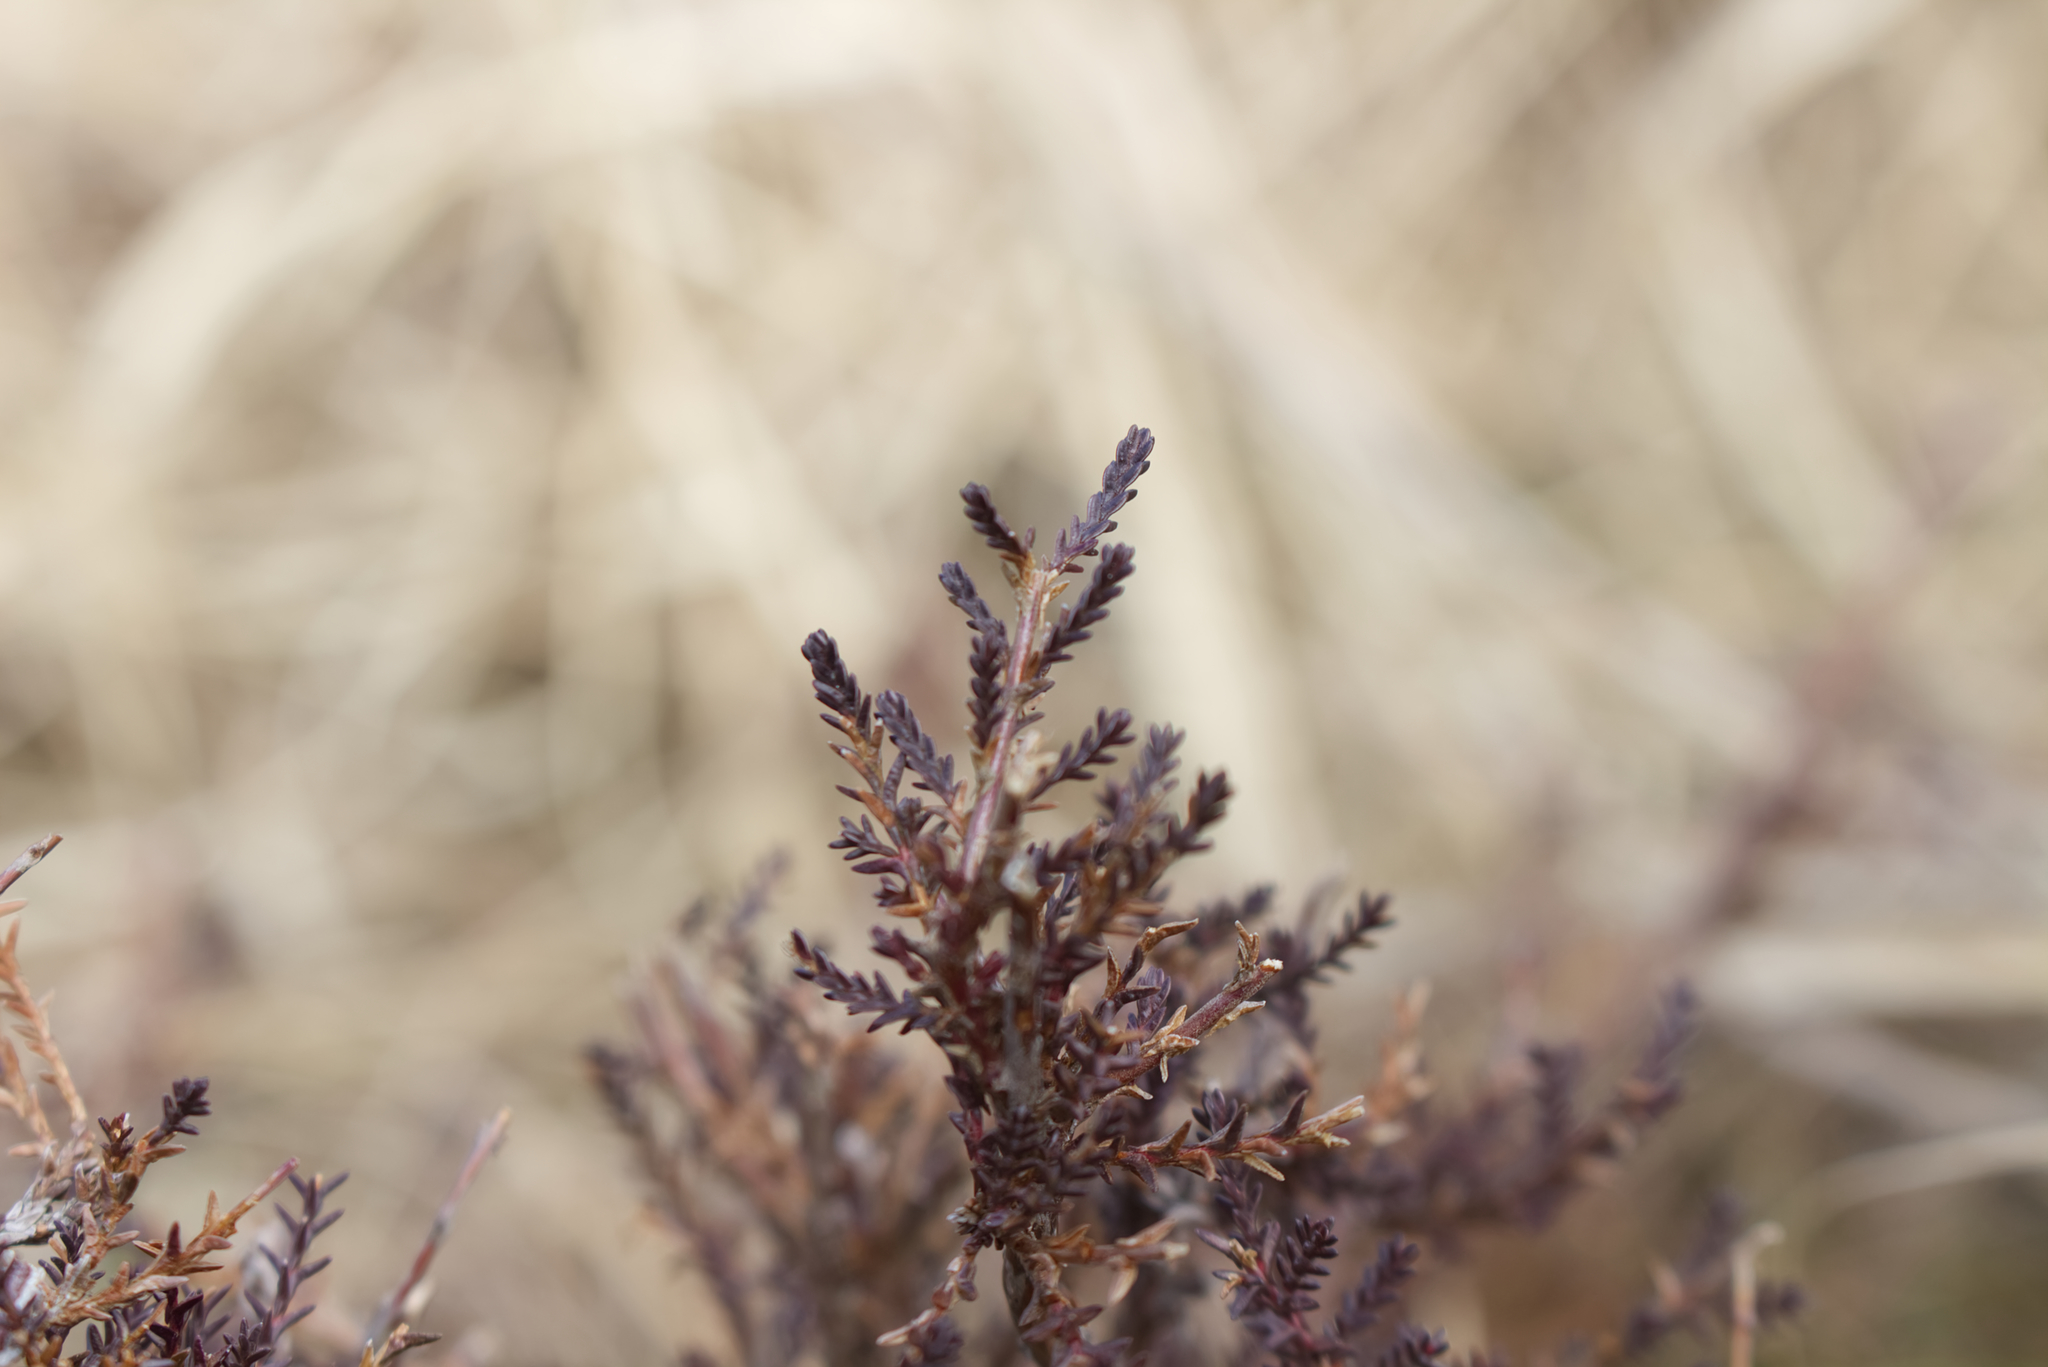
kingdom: Plantae
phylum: Tracheophyta
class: Magnoliopsida
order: Ericales
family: Ericaceae
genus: Calluna
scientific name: Calluna vulgaris
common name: Heather
